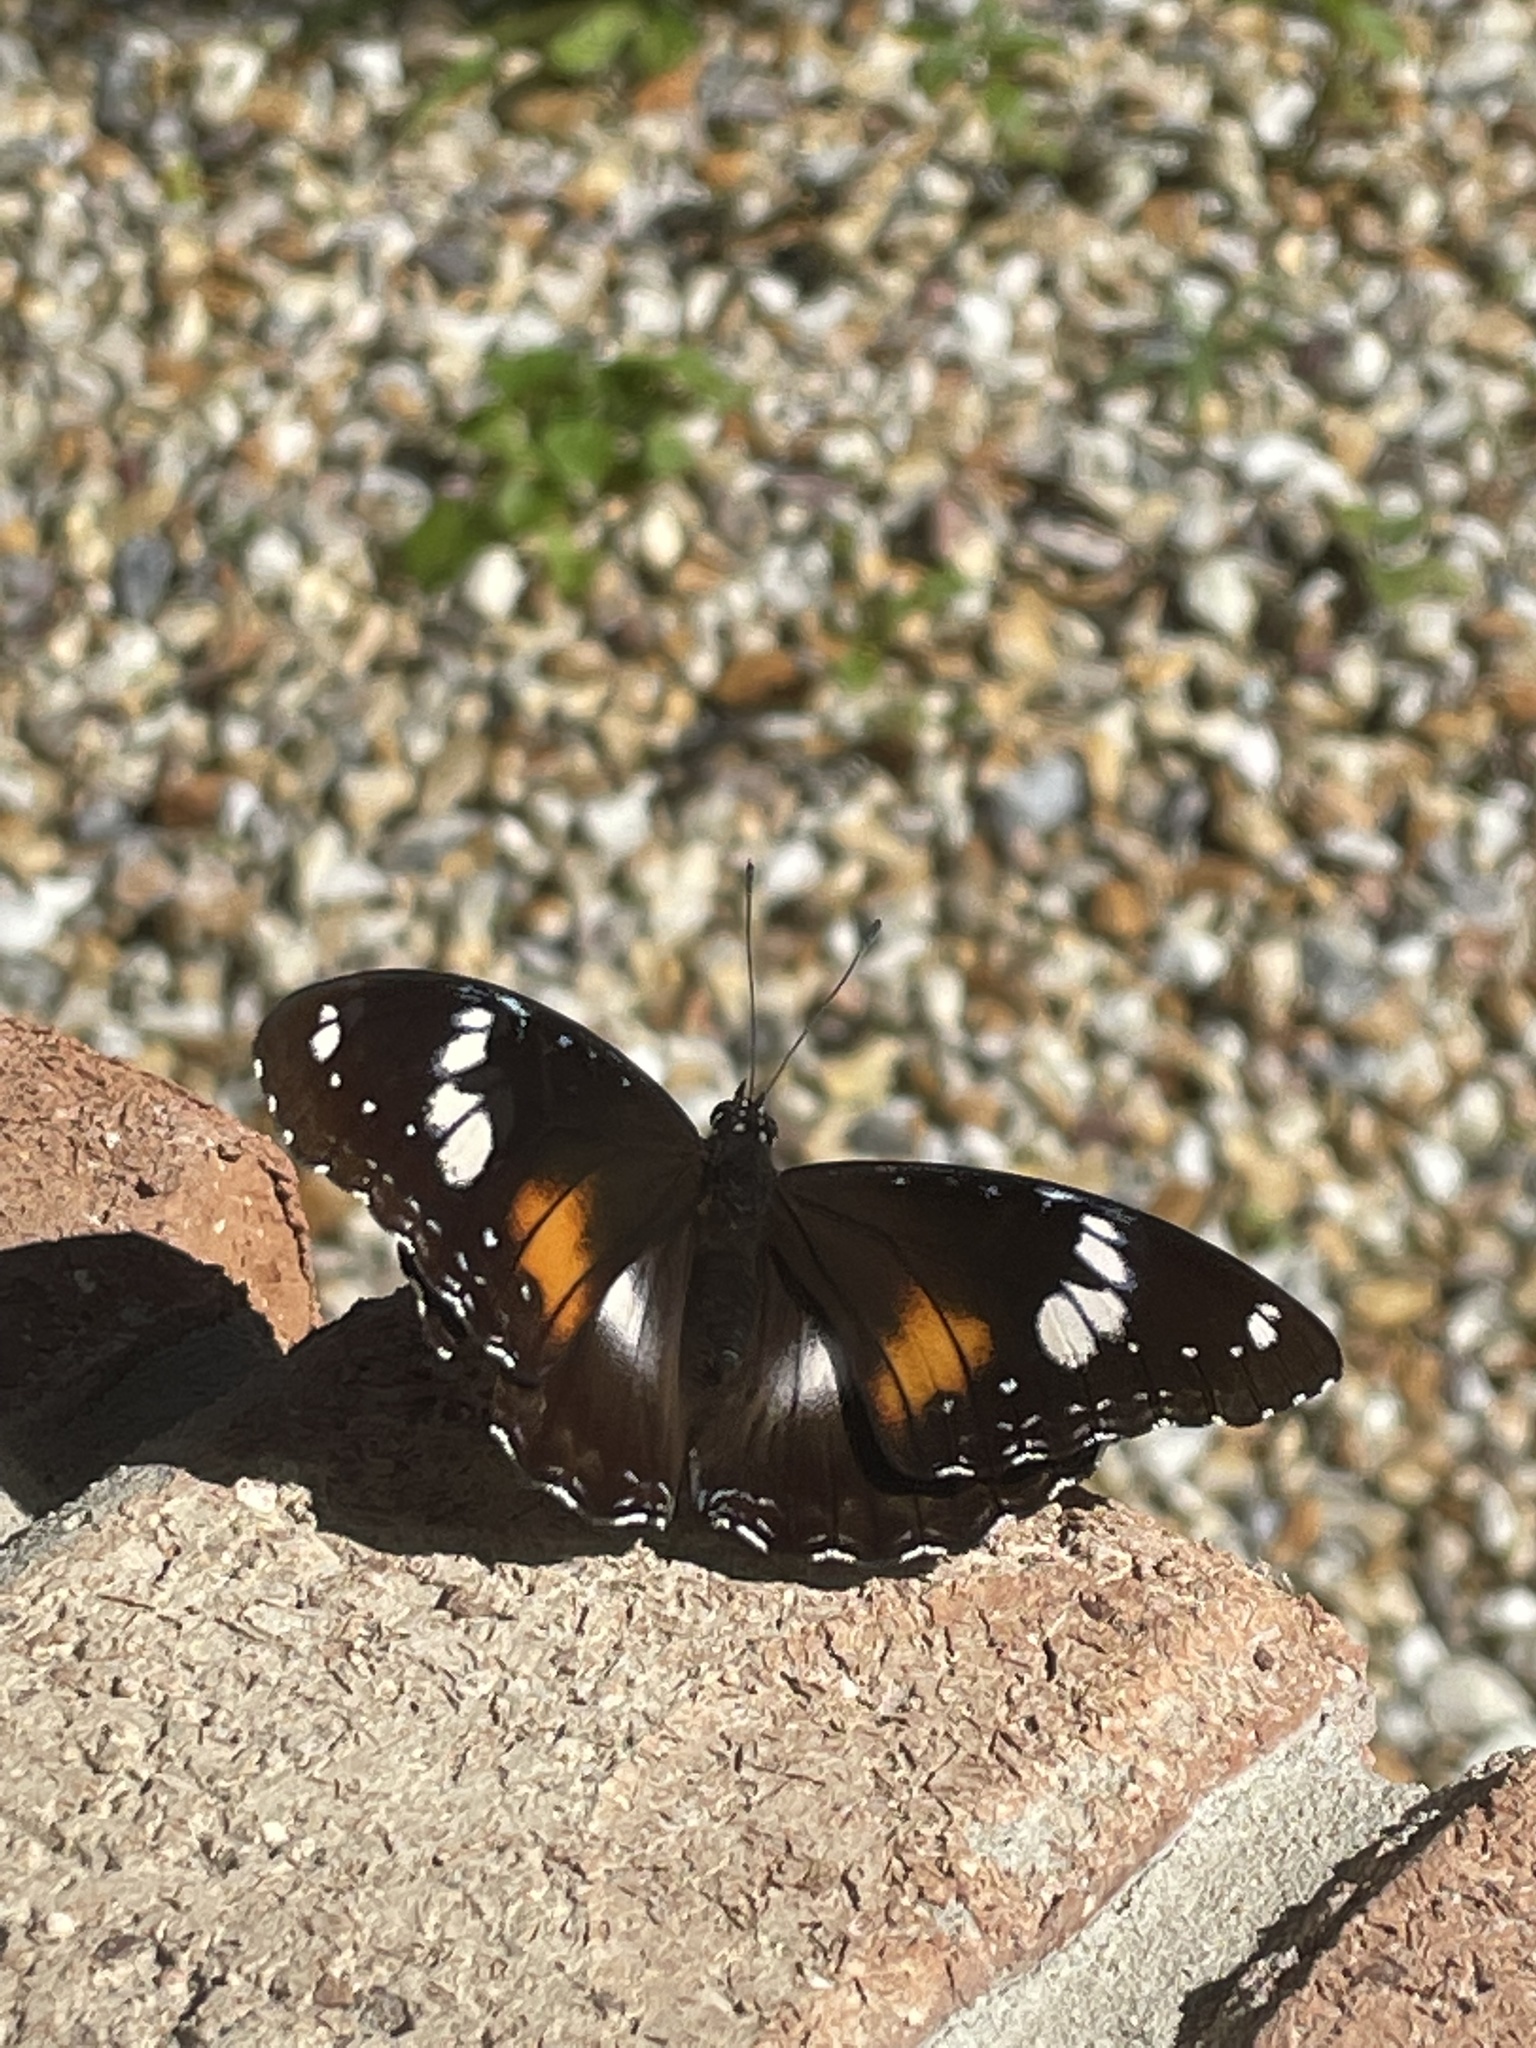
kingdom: Animalia
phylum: Arthropoda
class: Insecta
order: Lepidoptera
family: Nymphalidae
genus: Hypolimnas
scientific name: Hypolimnas bolina
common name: Great eggfly
